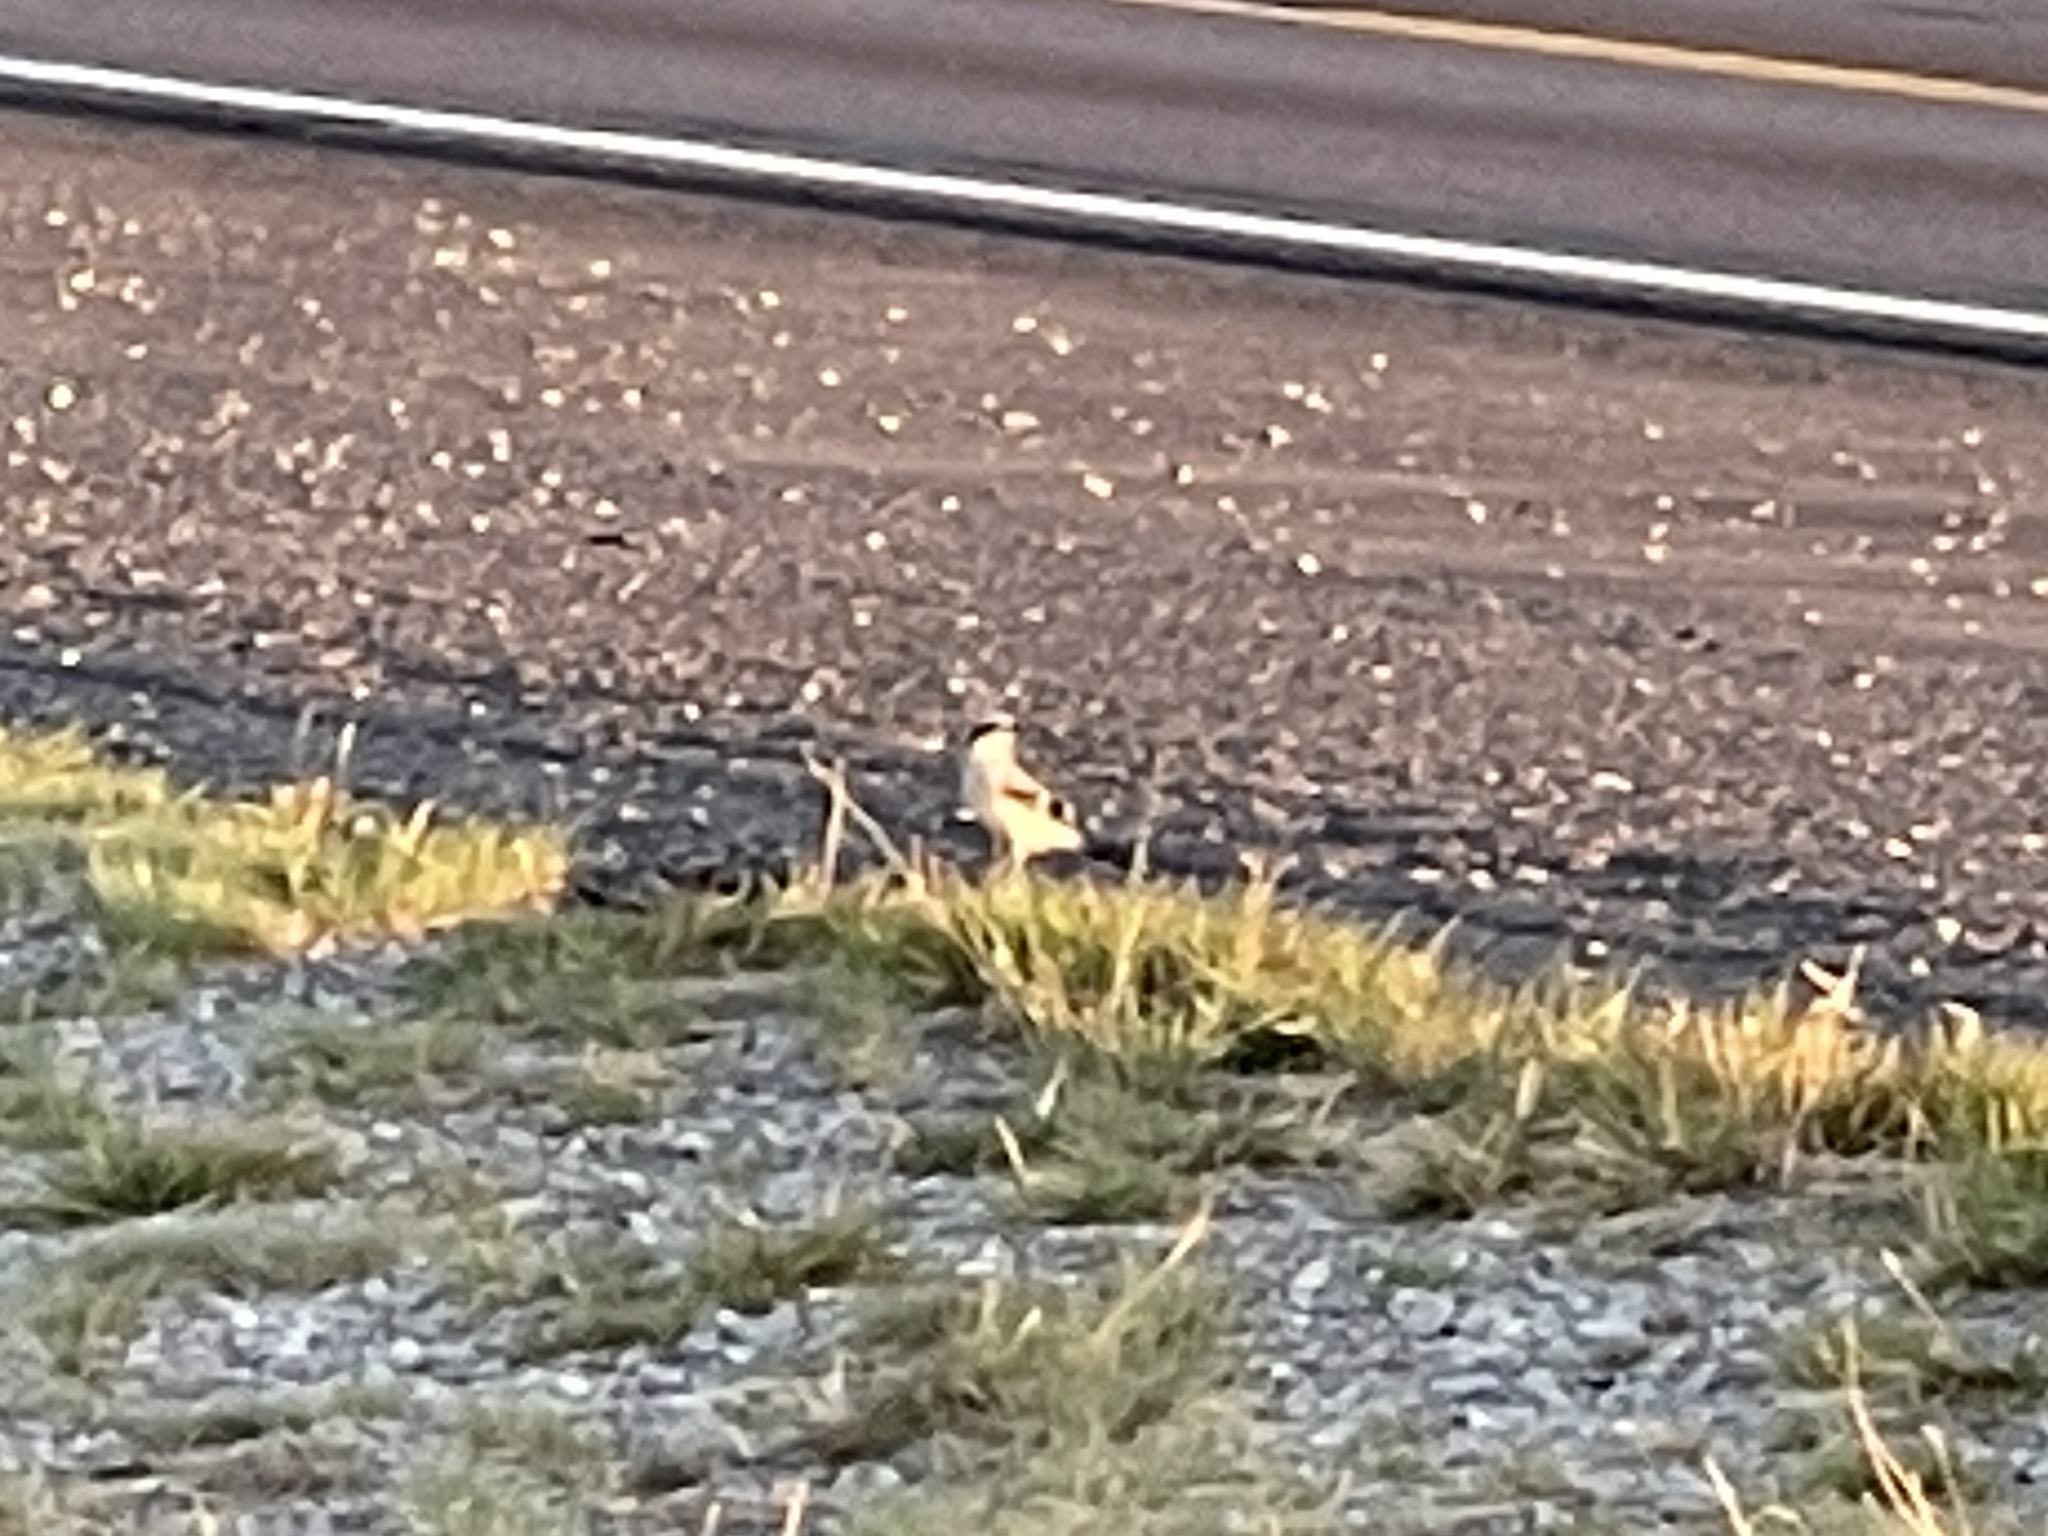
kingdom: Animalia
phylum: Chordata
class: Aves
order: Passeriformes
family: Laniidae
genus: Lanius
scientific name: Lanius ludovicianus
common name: Loggerhead shrike
